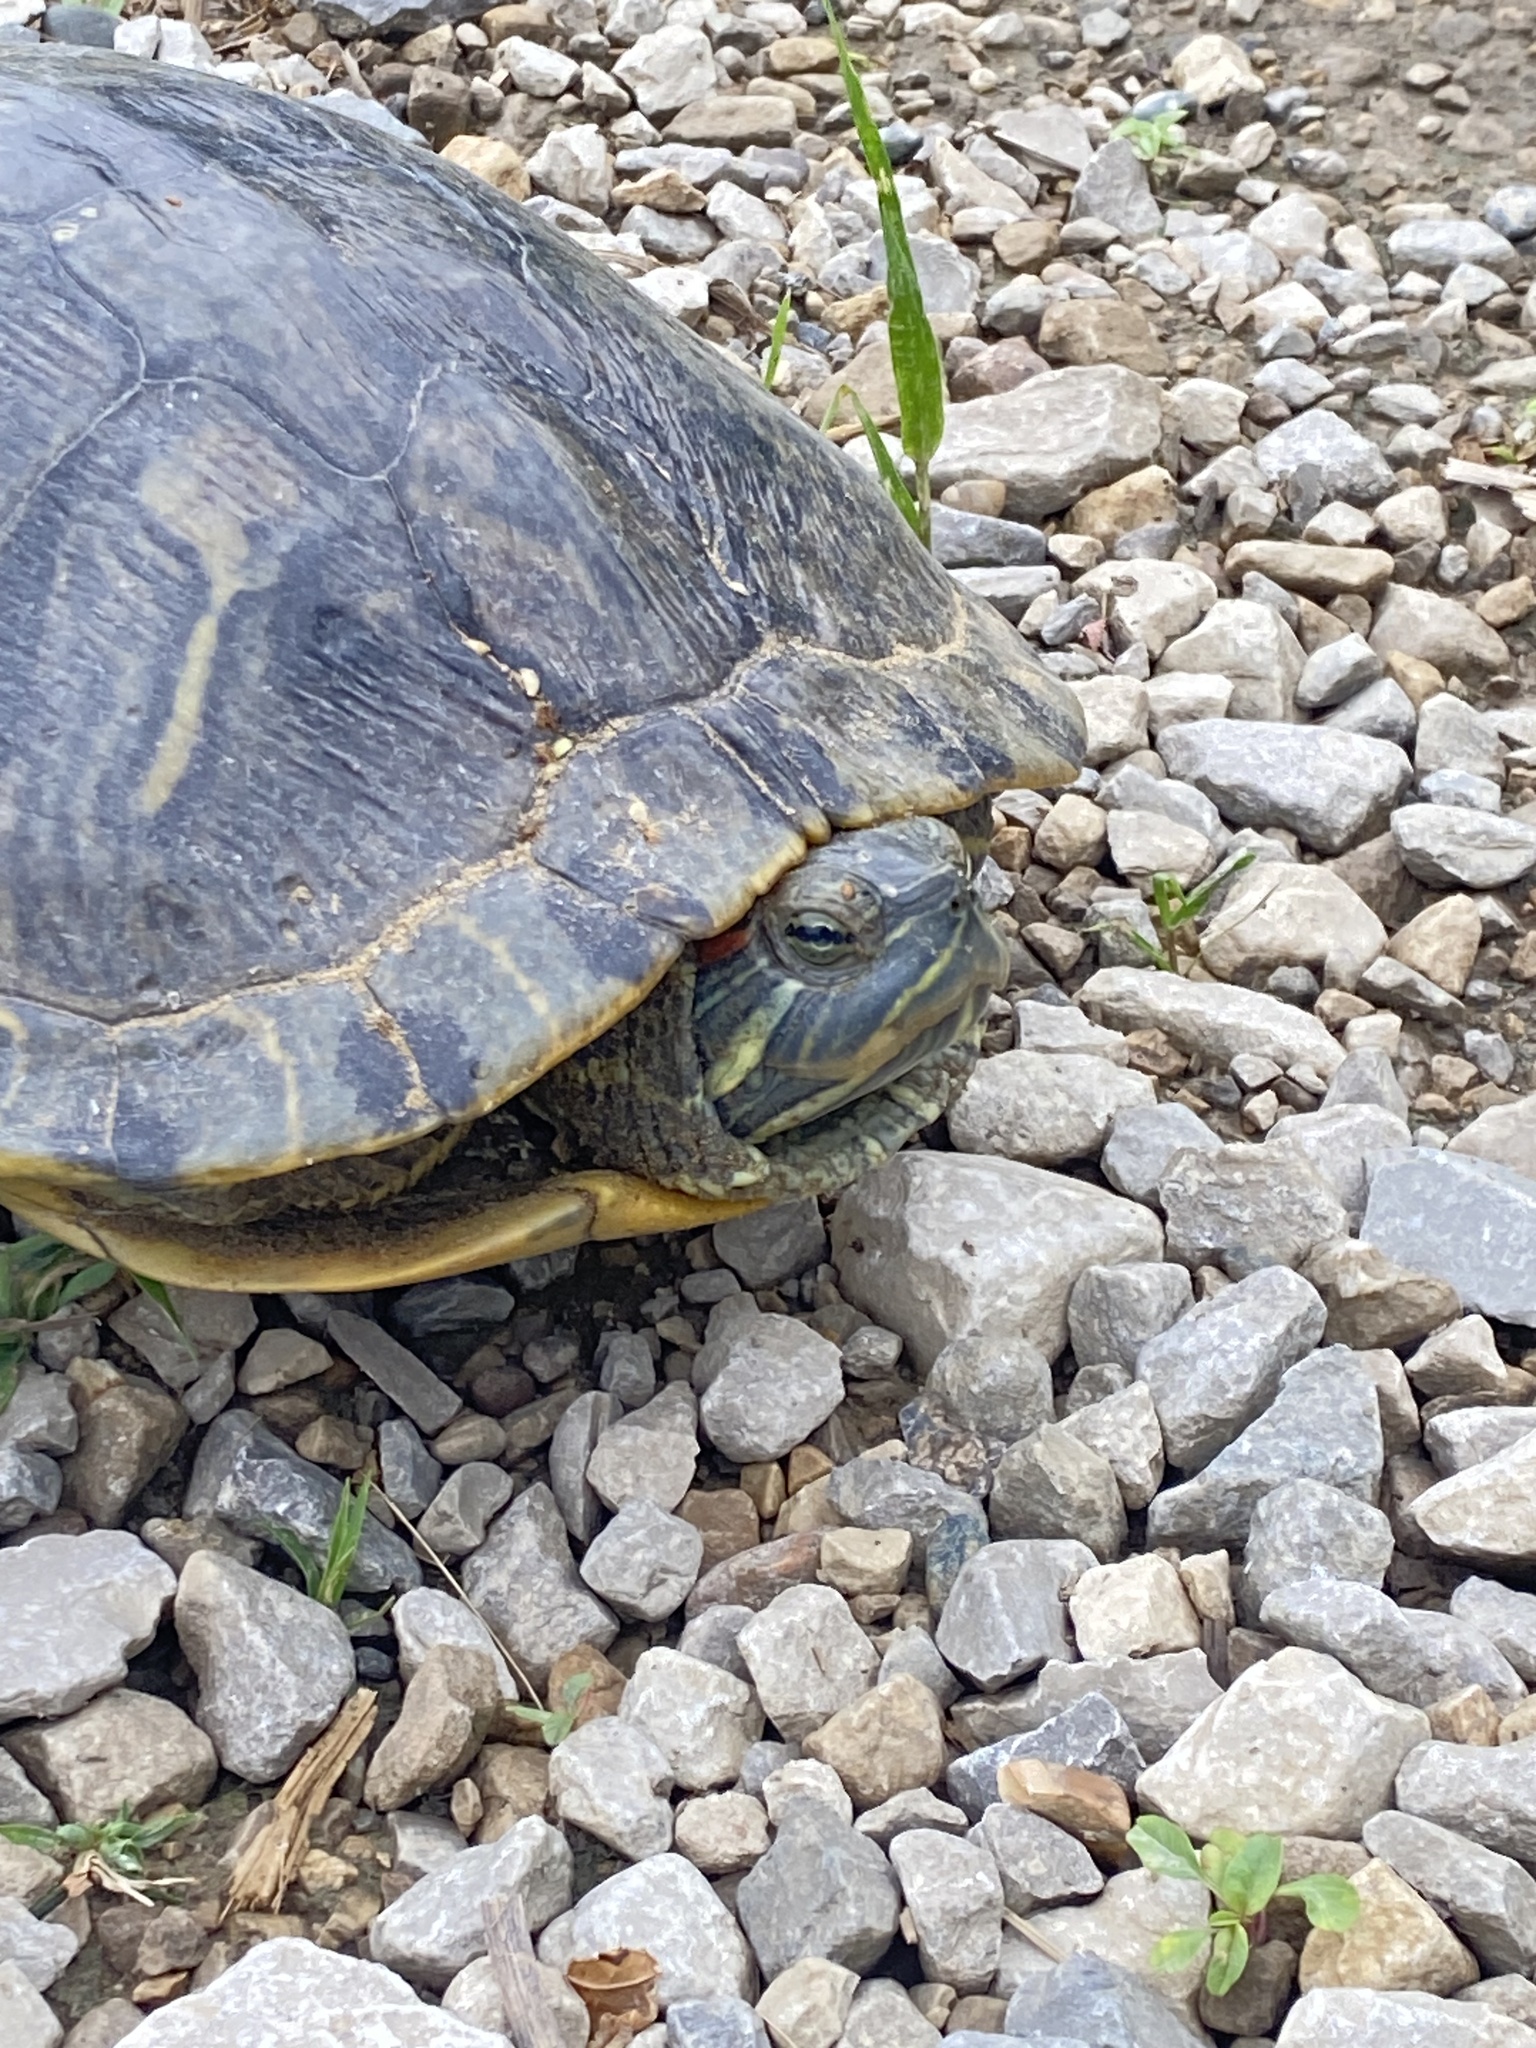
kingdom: Animalia
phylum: Chordata
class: Testudines
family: Emydidae
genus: Trachemys
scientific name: Trachemys scripta
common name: Slider
